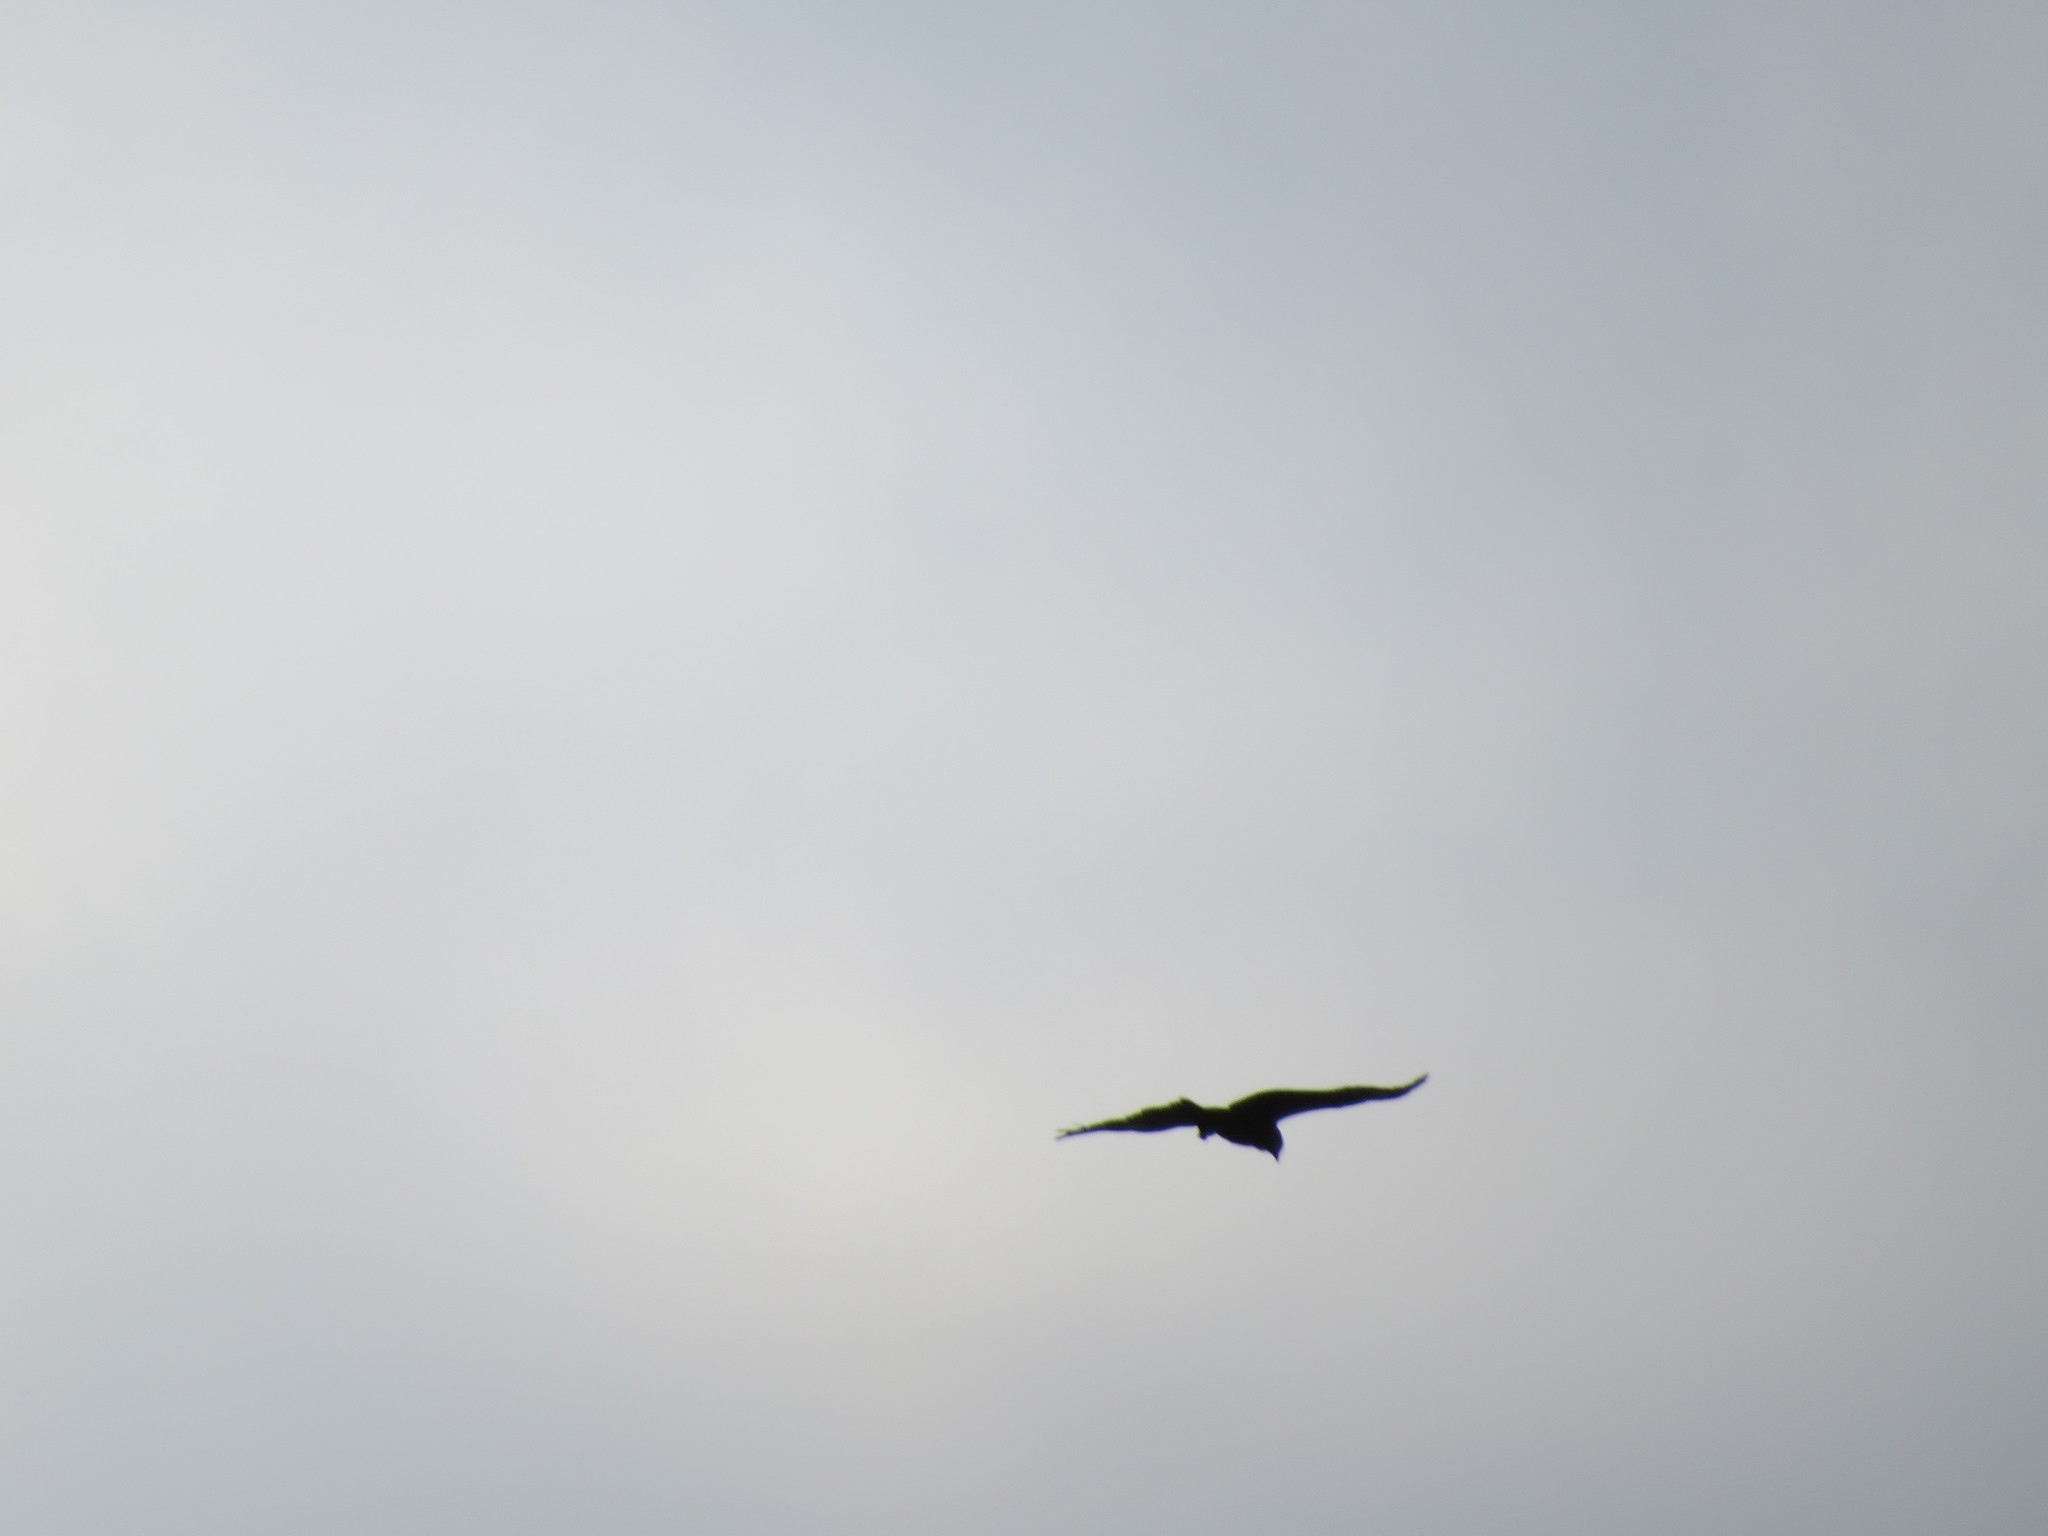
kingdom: Animalia
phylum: Chordata
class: Aves
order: Accipitriformes
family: Accipitridae
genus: Milvus
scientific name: Milvus migrans
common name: Black kite
